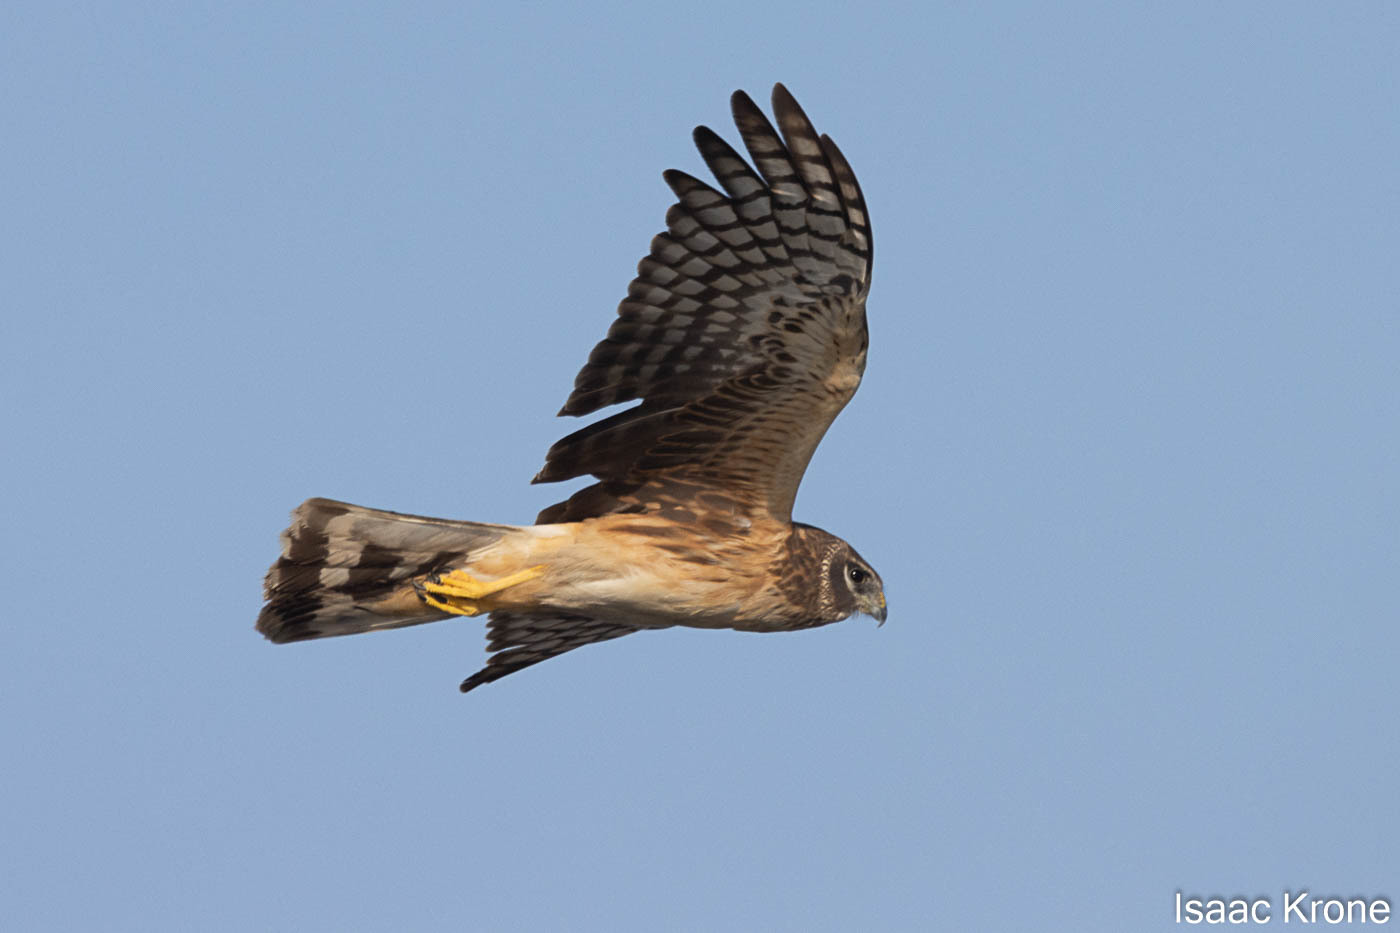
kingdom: Animalia
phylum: Chordata
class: Aves
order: Accipitriformes
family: Accipitridae
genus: Circus
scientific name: Circus cyaneus
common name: Hen harrier
